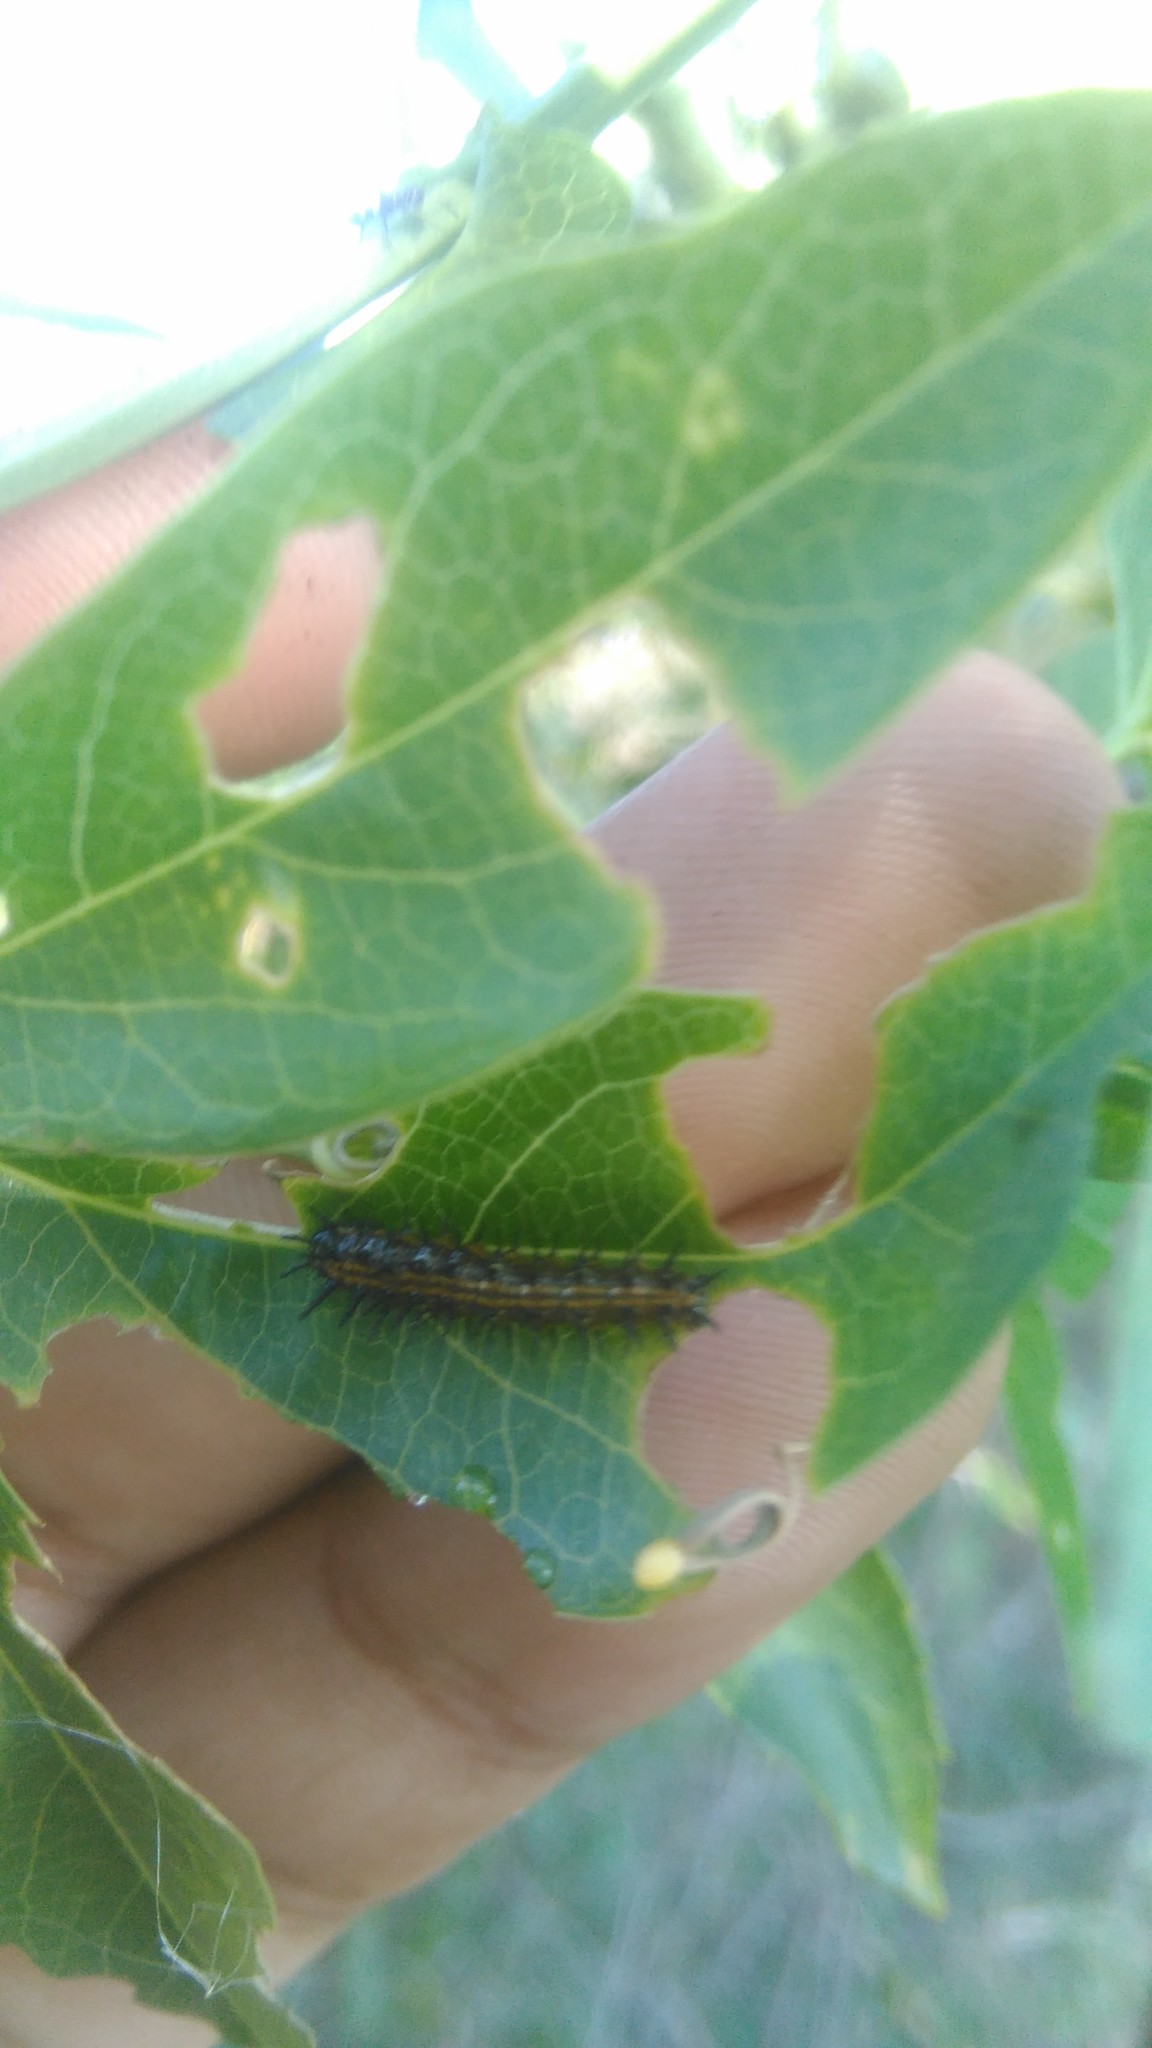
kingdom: Animalia
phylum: Arthropoda
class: Insecta
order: Lepidoptera
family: Nymphalidae
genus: Dione
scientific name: Dione vanillae
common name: Gulf fritillary
